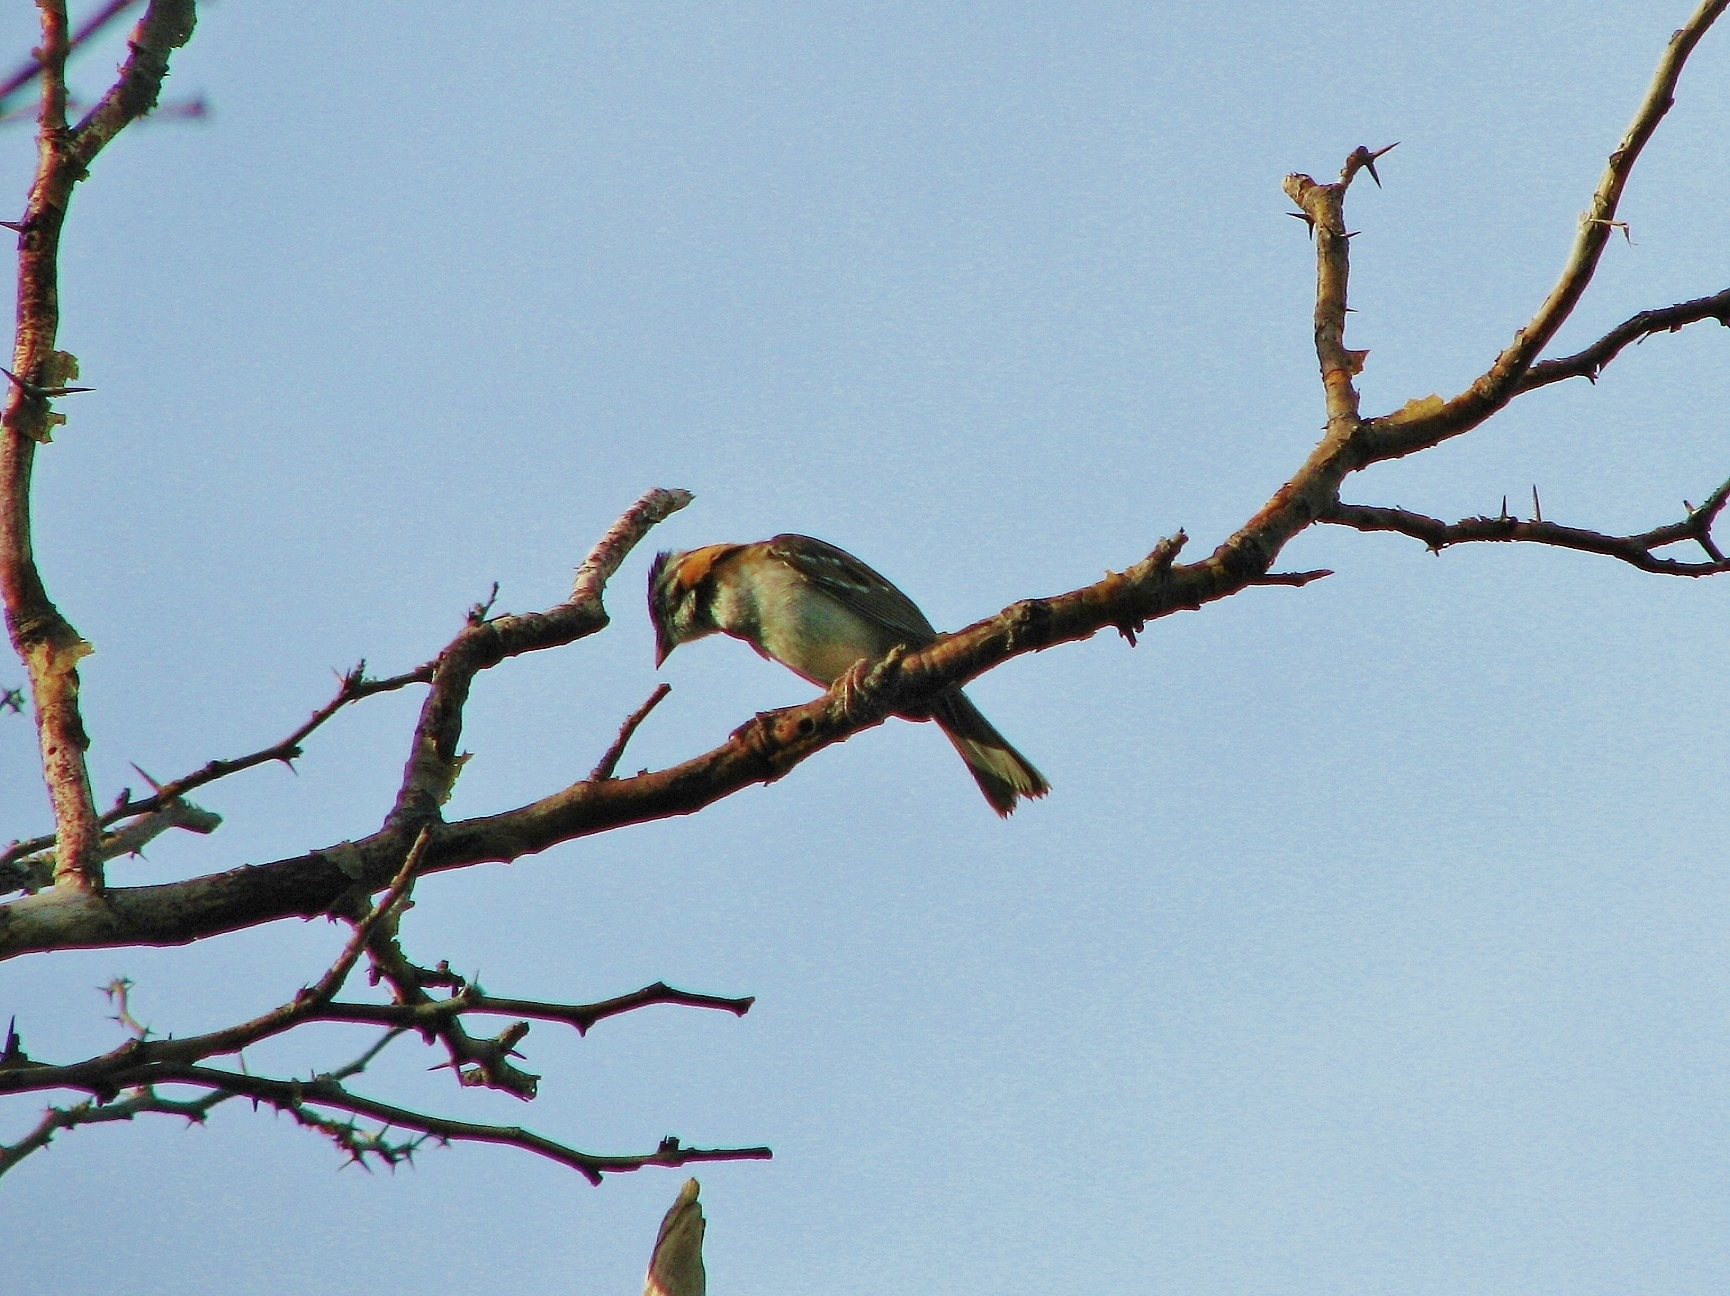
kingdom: Animalia
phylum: Chordata
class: Aves
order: Passeriformes
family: Passerellidae
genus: Zonotrichia
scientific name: Zonotrichia capensis
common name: Rufous-collared sparrow
